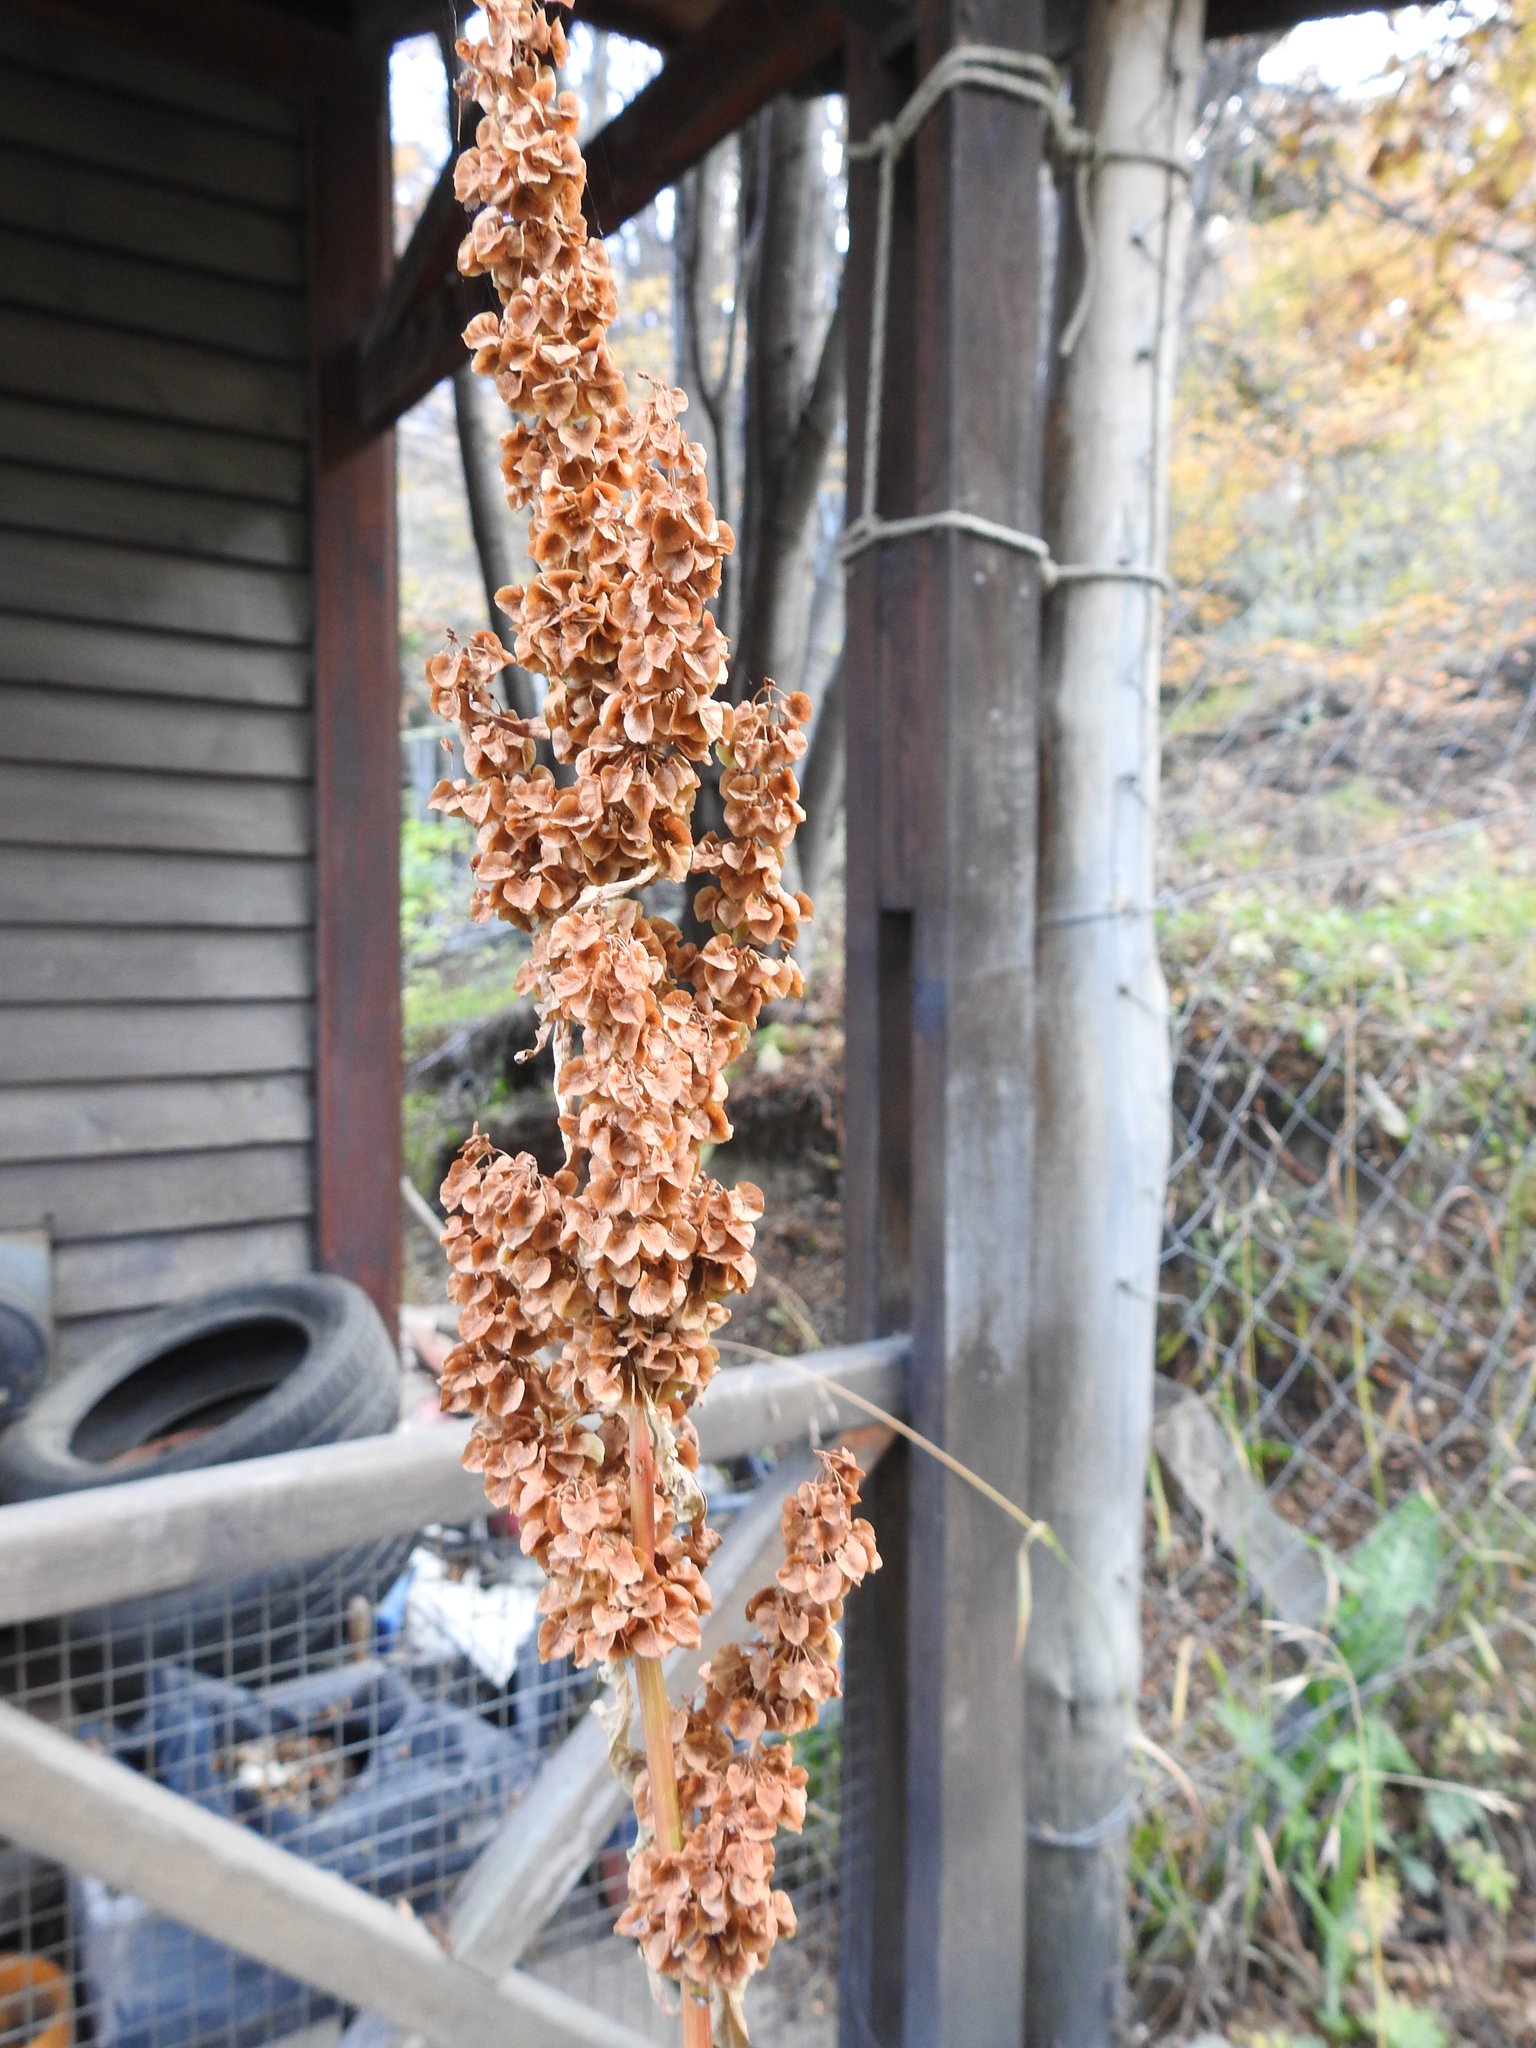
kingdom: Plantae
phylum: Tracheophyta
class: Magnoliopsida
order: Caryophyllales
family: Polygonaceae
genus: Rumex
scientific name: Rumex crispus
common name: Curled dock
